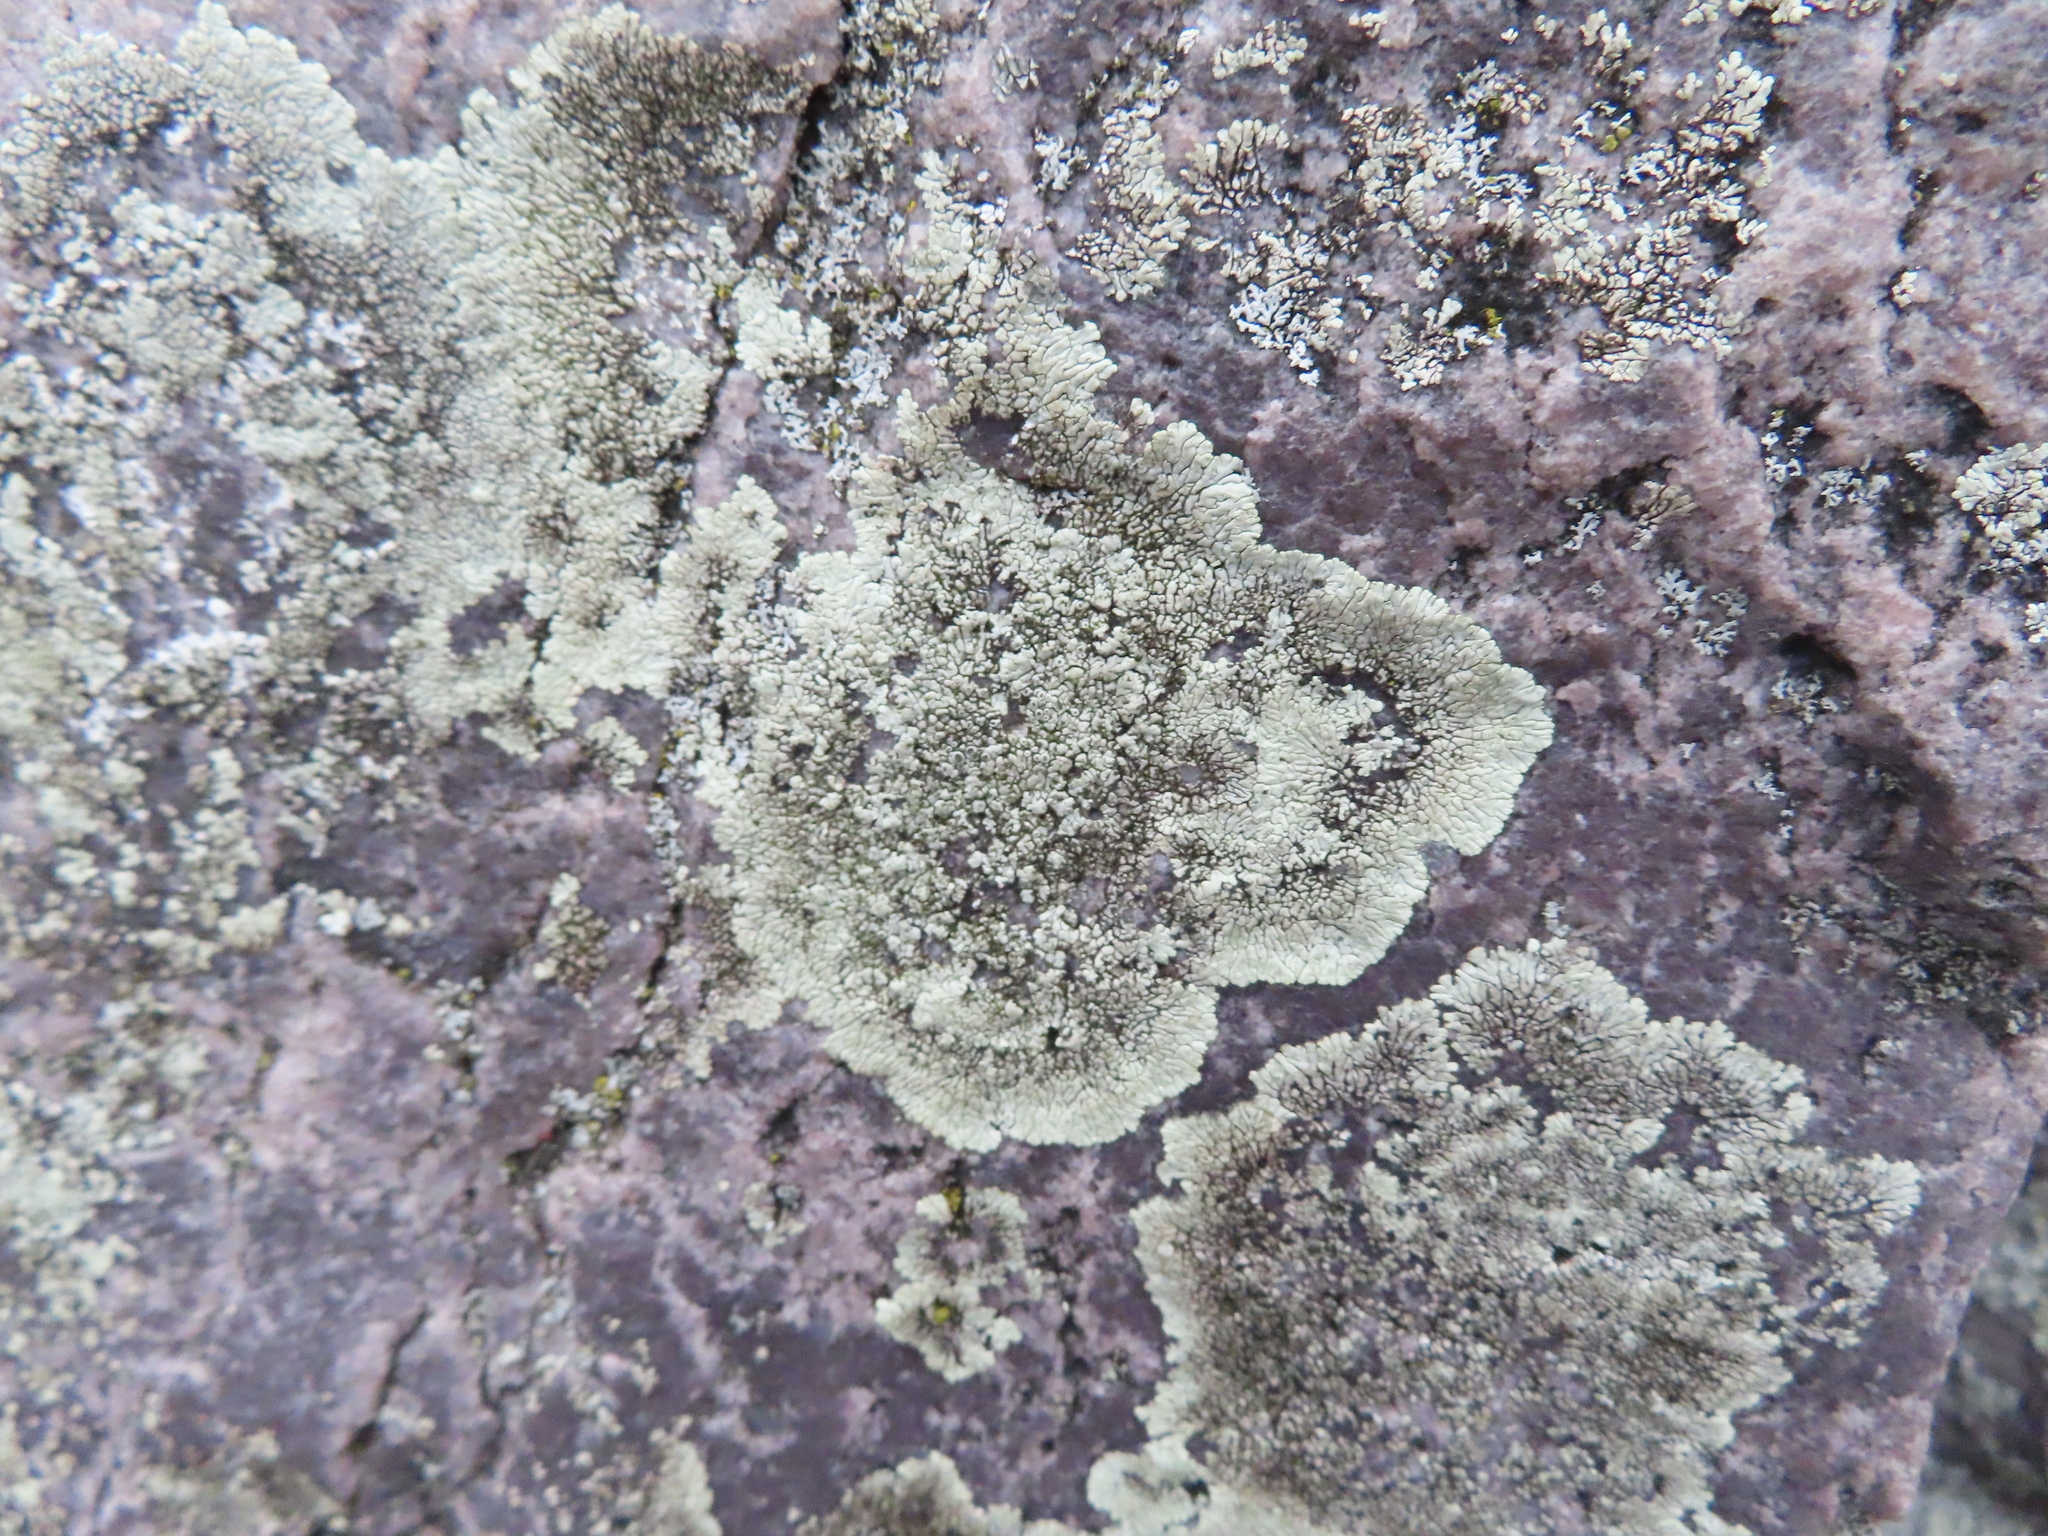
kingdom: Fungi
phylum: Ascomycota
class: Lecanoromycetes
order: Caliciales
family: Caliciaceae
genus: Dimelaena
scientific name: Dimelaena oreina
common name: Golden moonglow lichen
